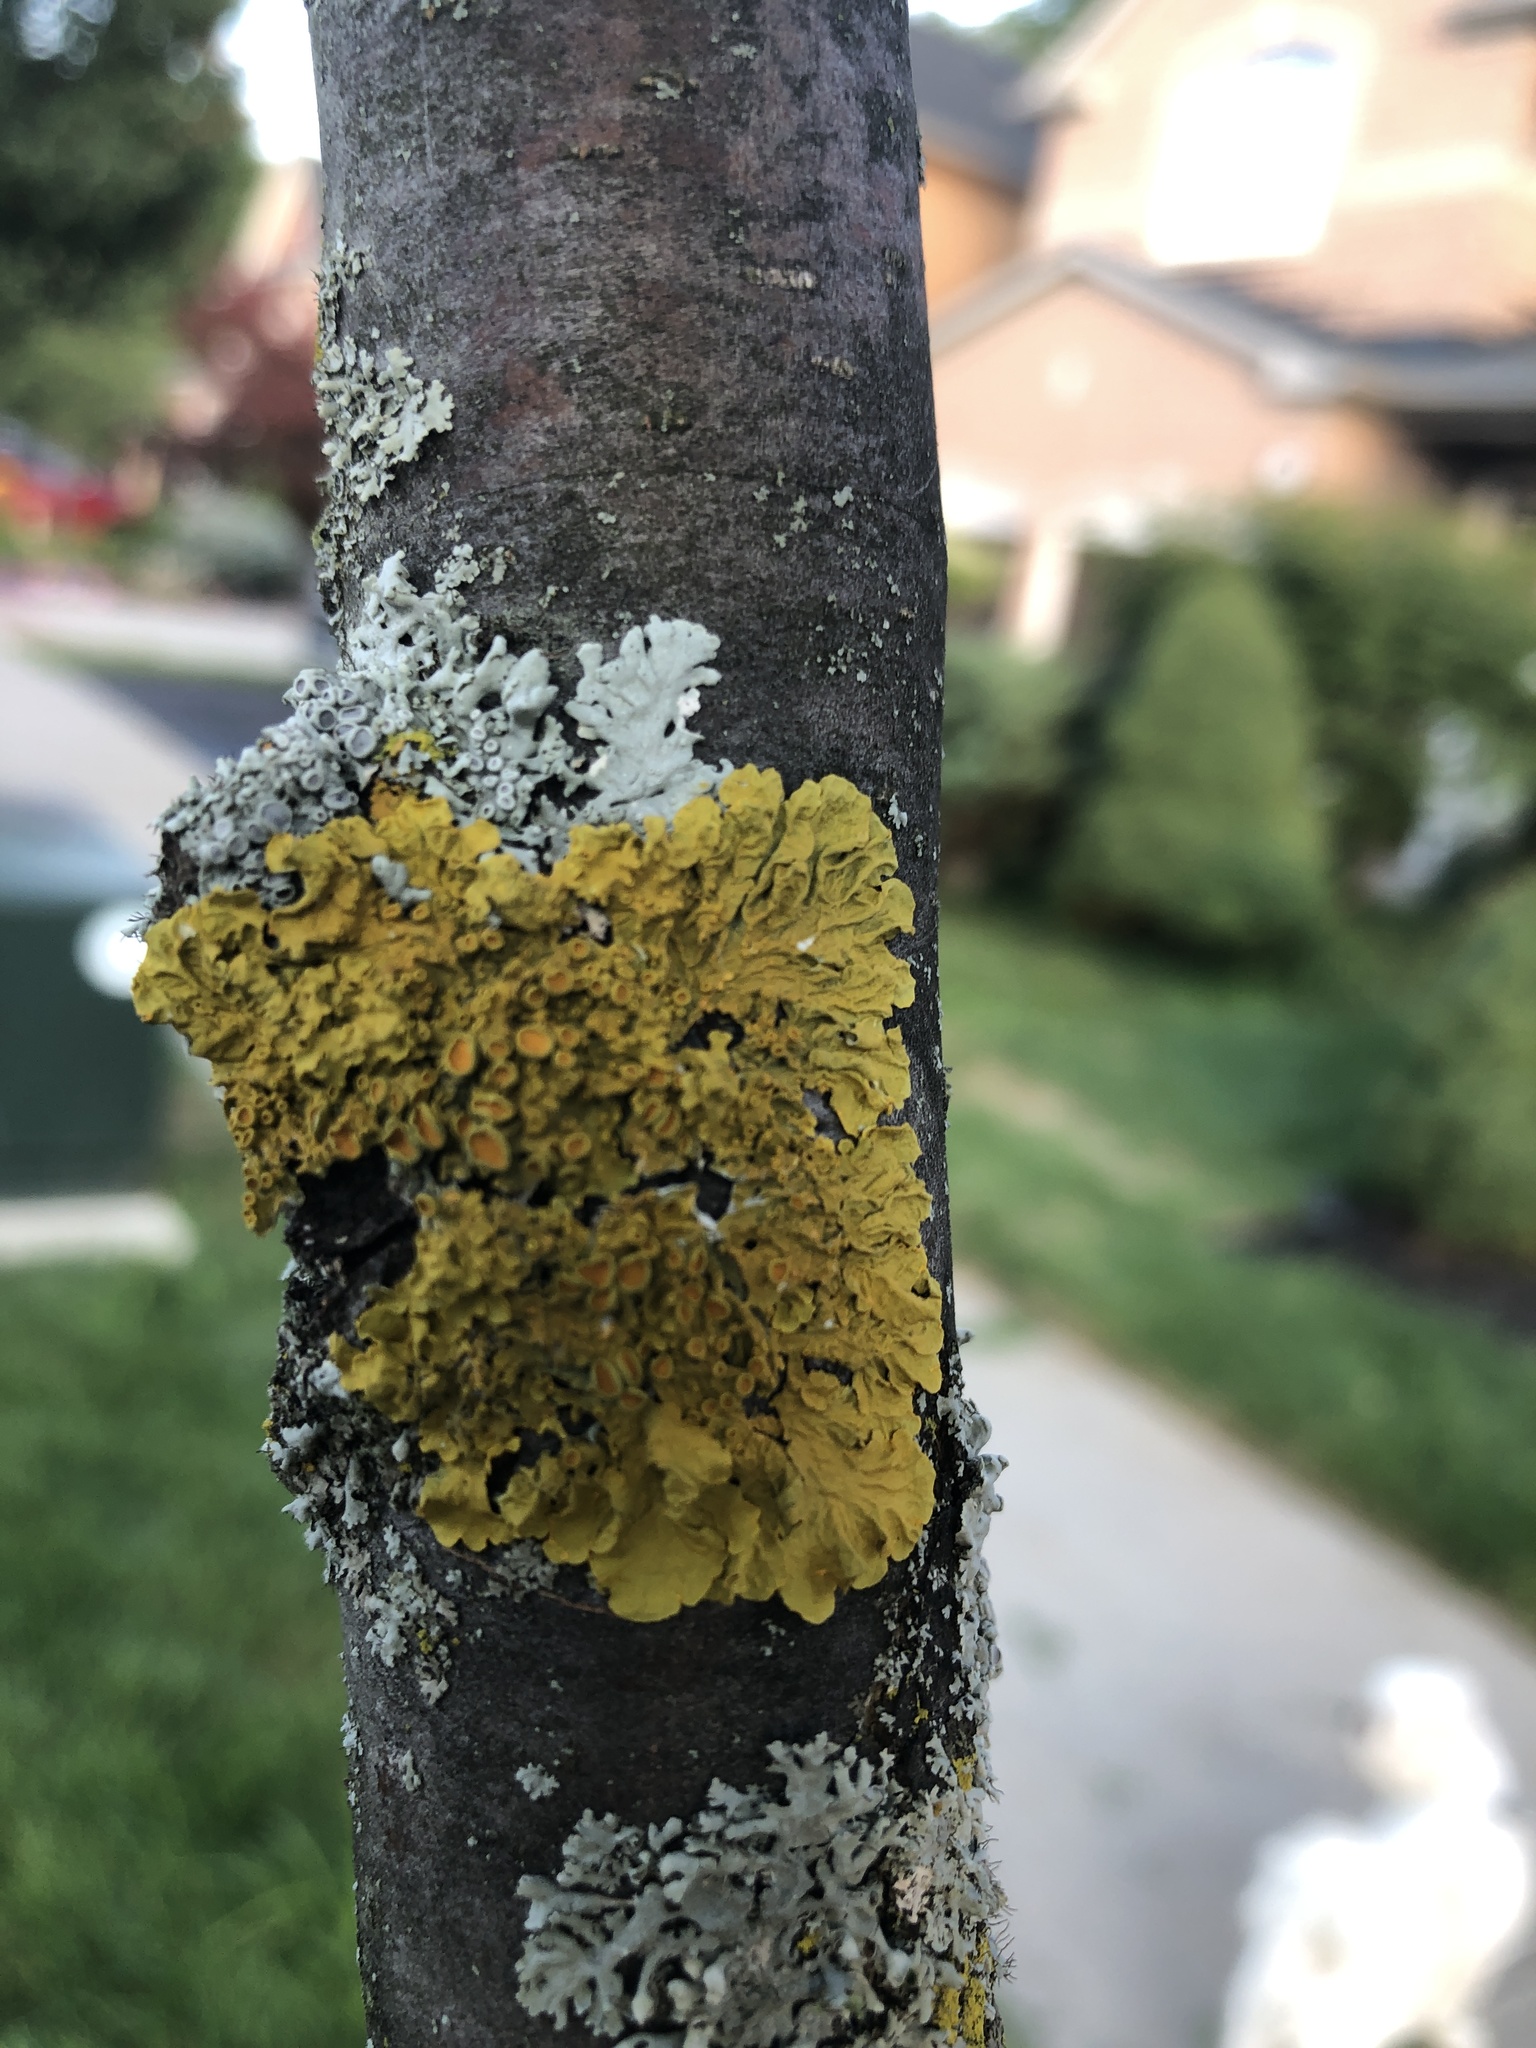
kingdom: Fungi
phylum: Ascomycota
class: Lecanoromycetes
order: Teloschistales
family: Teloschistaceae
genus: Xanthoria
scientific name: Xanthoria parietina
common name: Common orange lichen
